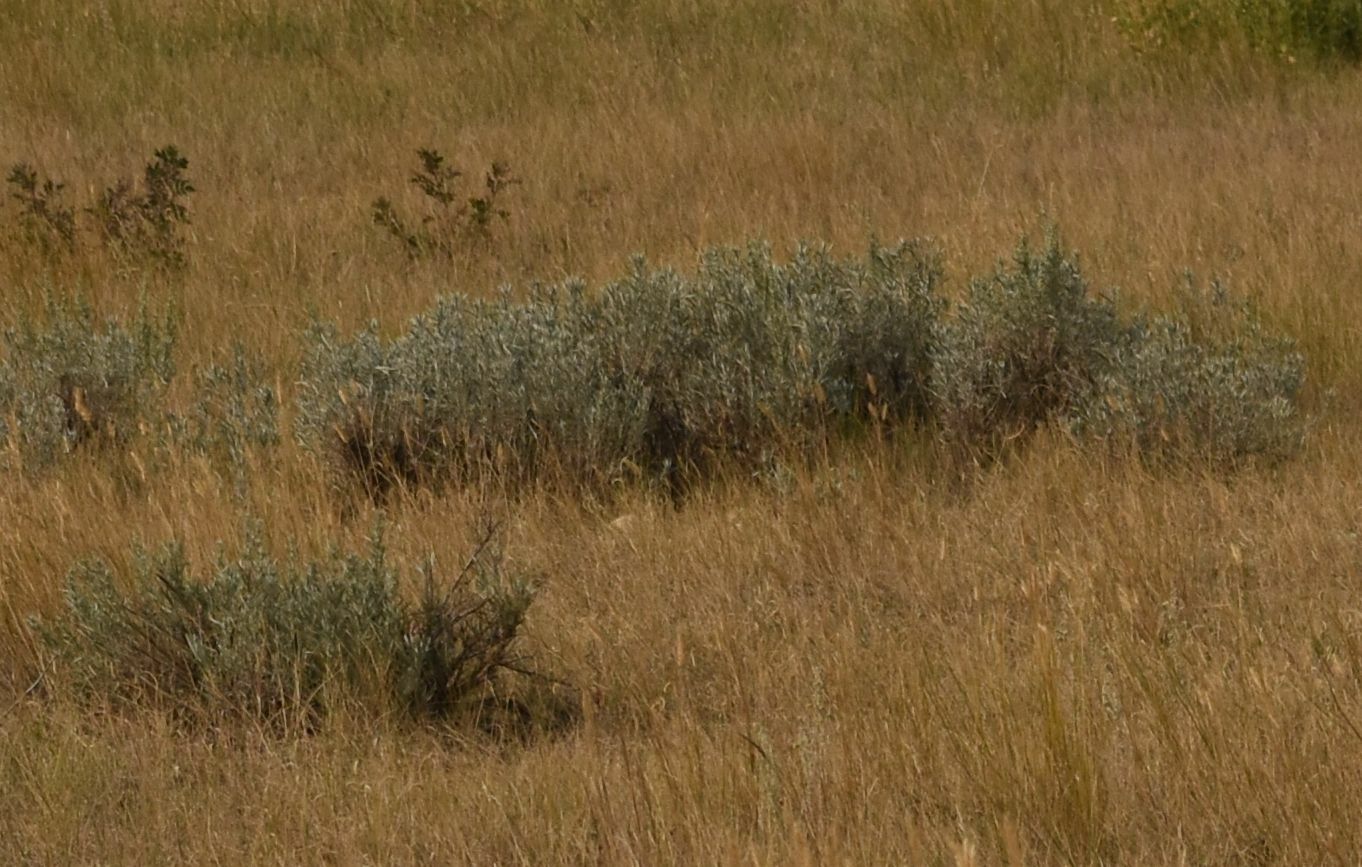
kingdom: Plantae
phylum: Tracheophyta
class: Magnoliopsida
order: Asterales
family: Asteraceae
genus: Artemisia
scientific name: Artemisia cana
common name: Silver sagebrush
